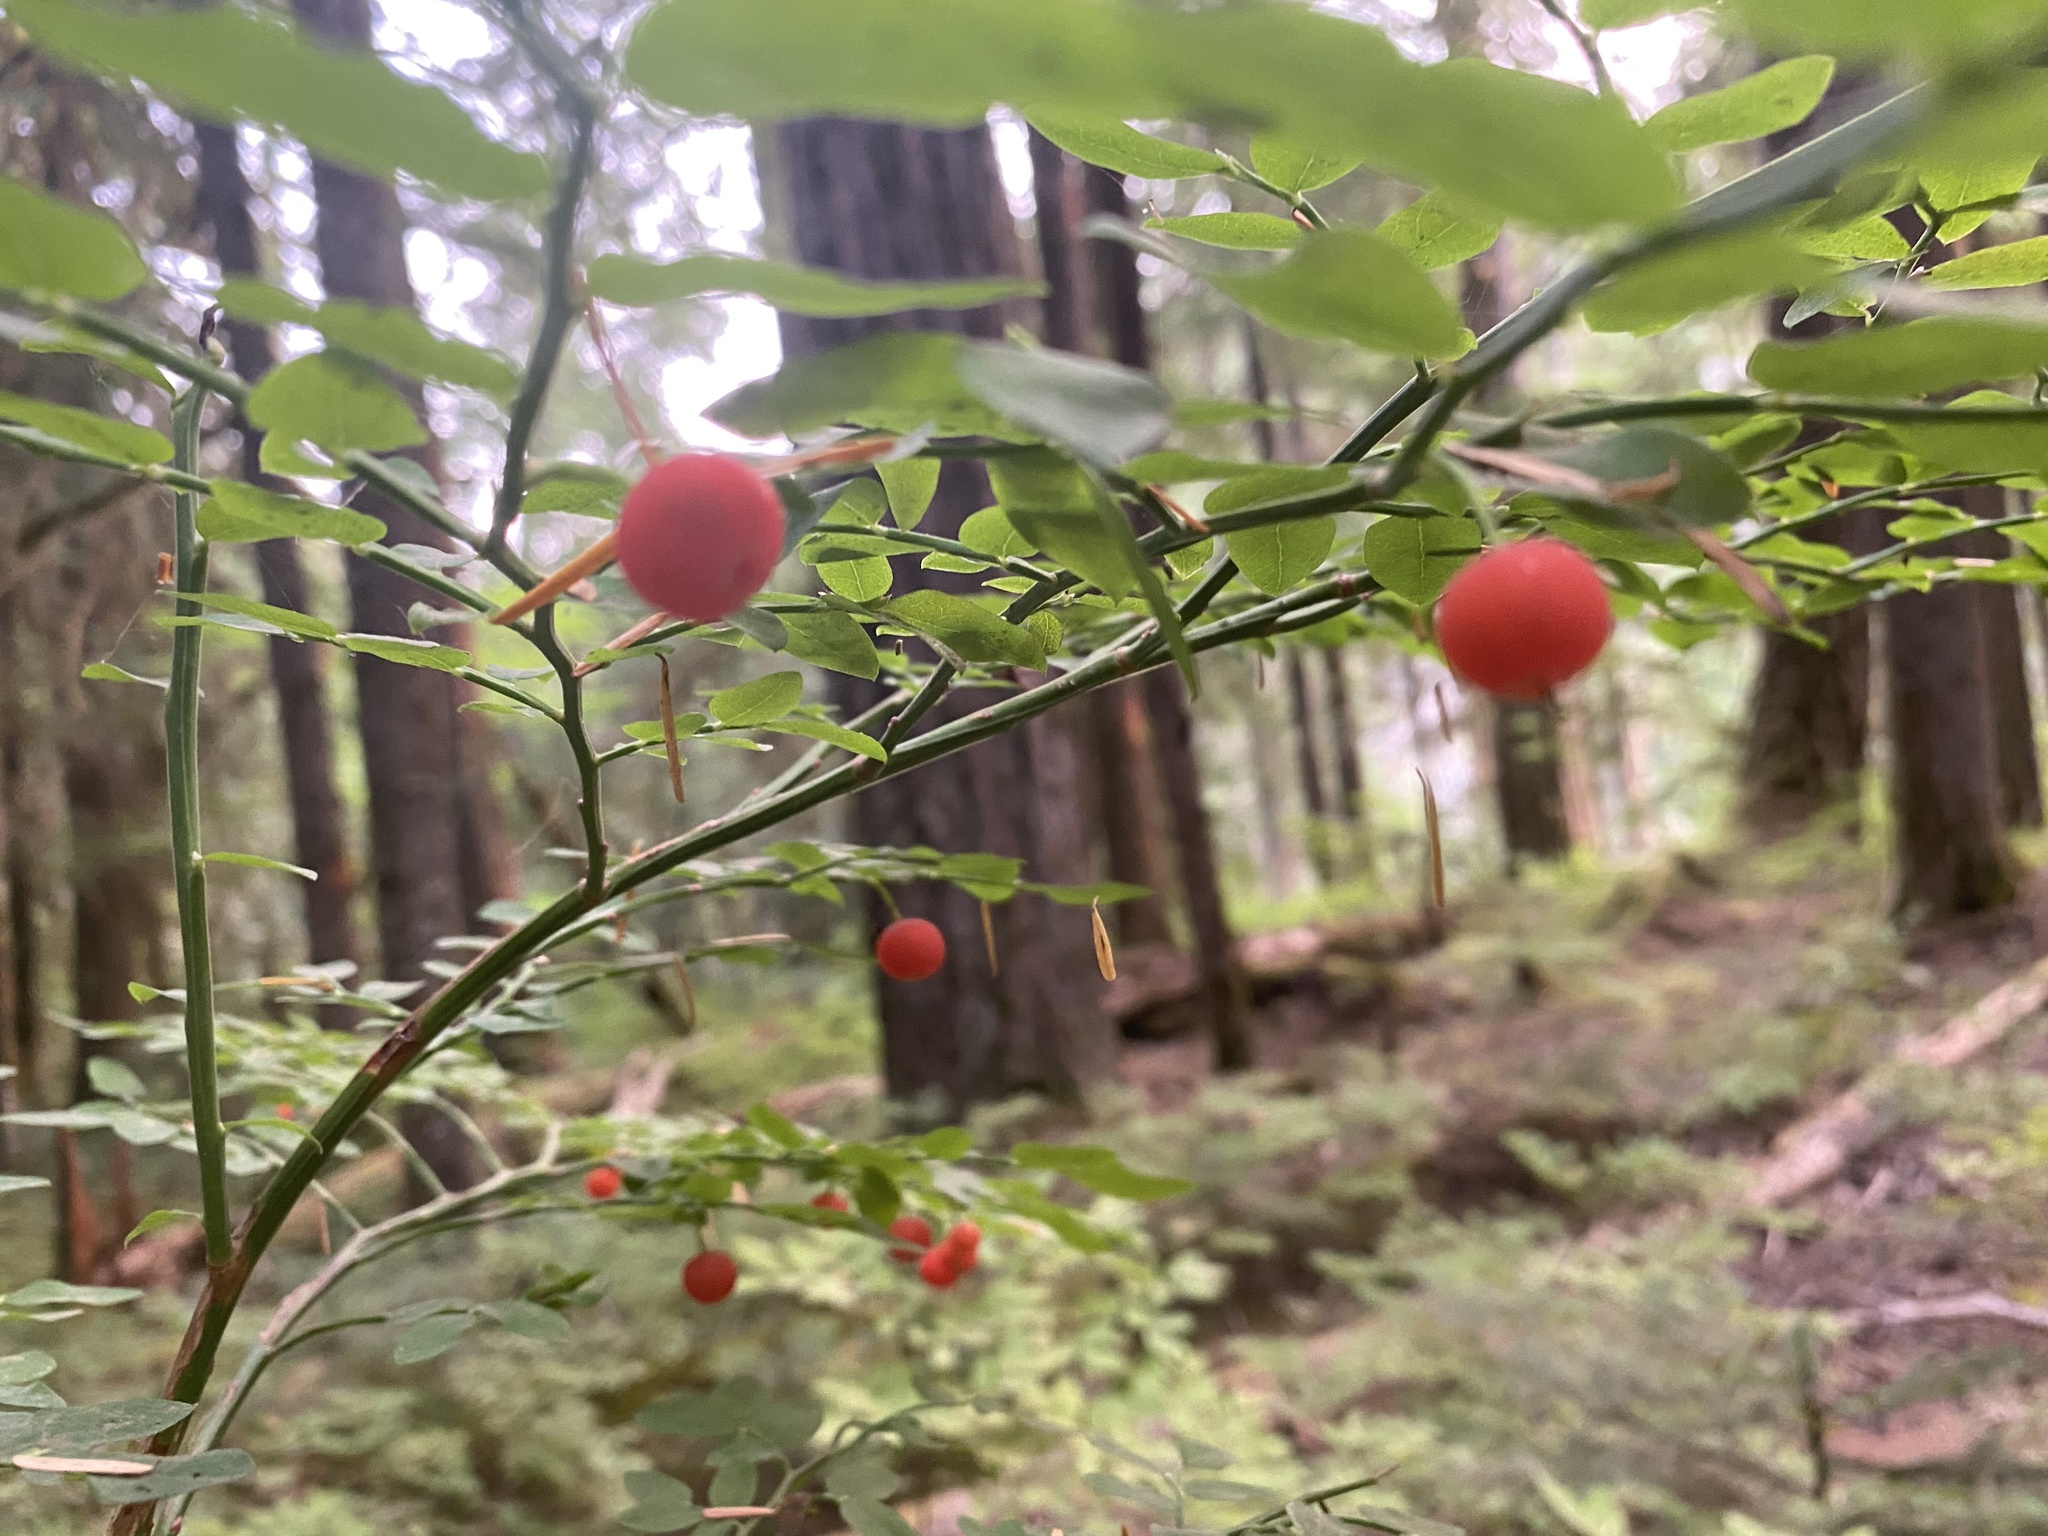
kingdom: Plantae
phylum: Tracheophyta
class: Magnoliopsida
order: Ericales
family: Ericaceae
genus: Vaccinium
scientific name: Vaccinium parvifolium
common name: Red-huckleberry
